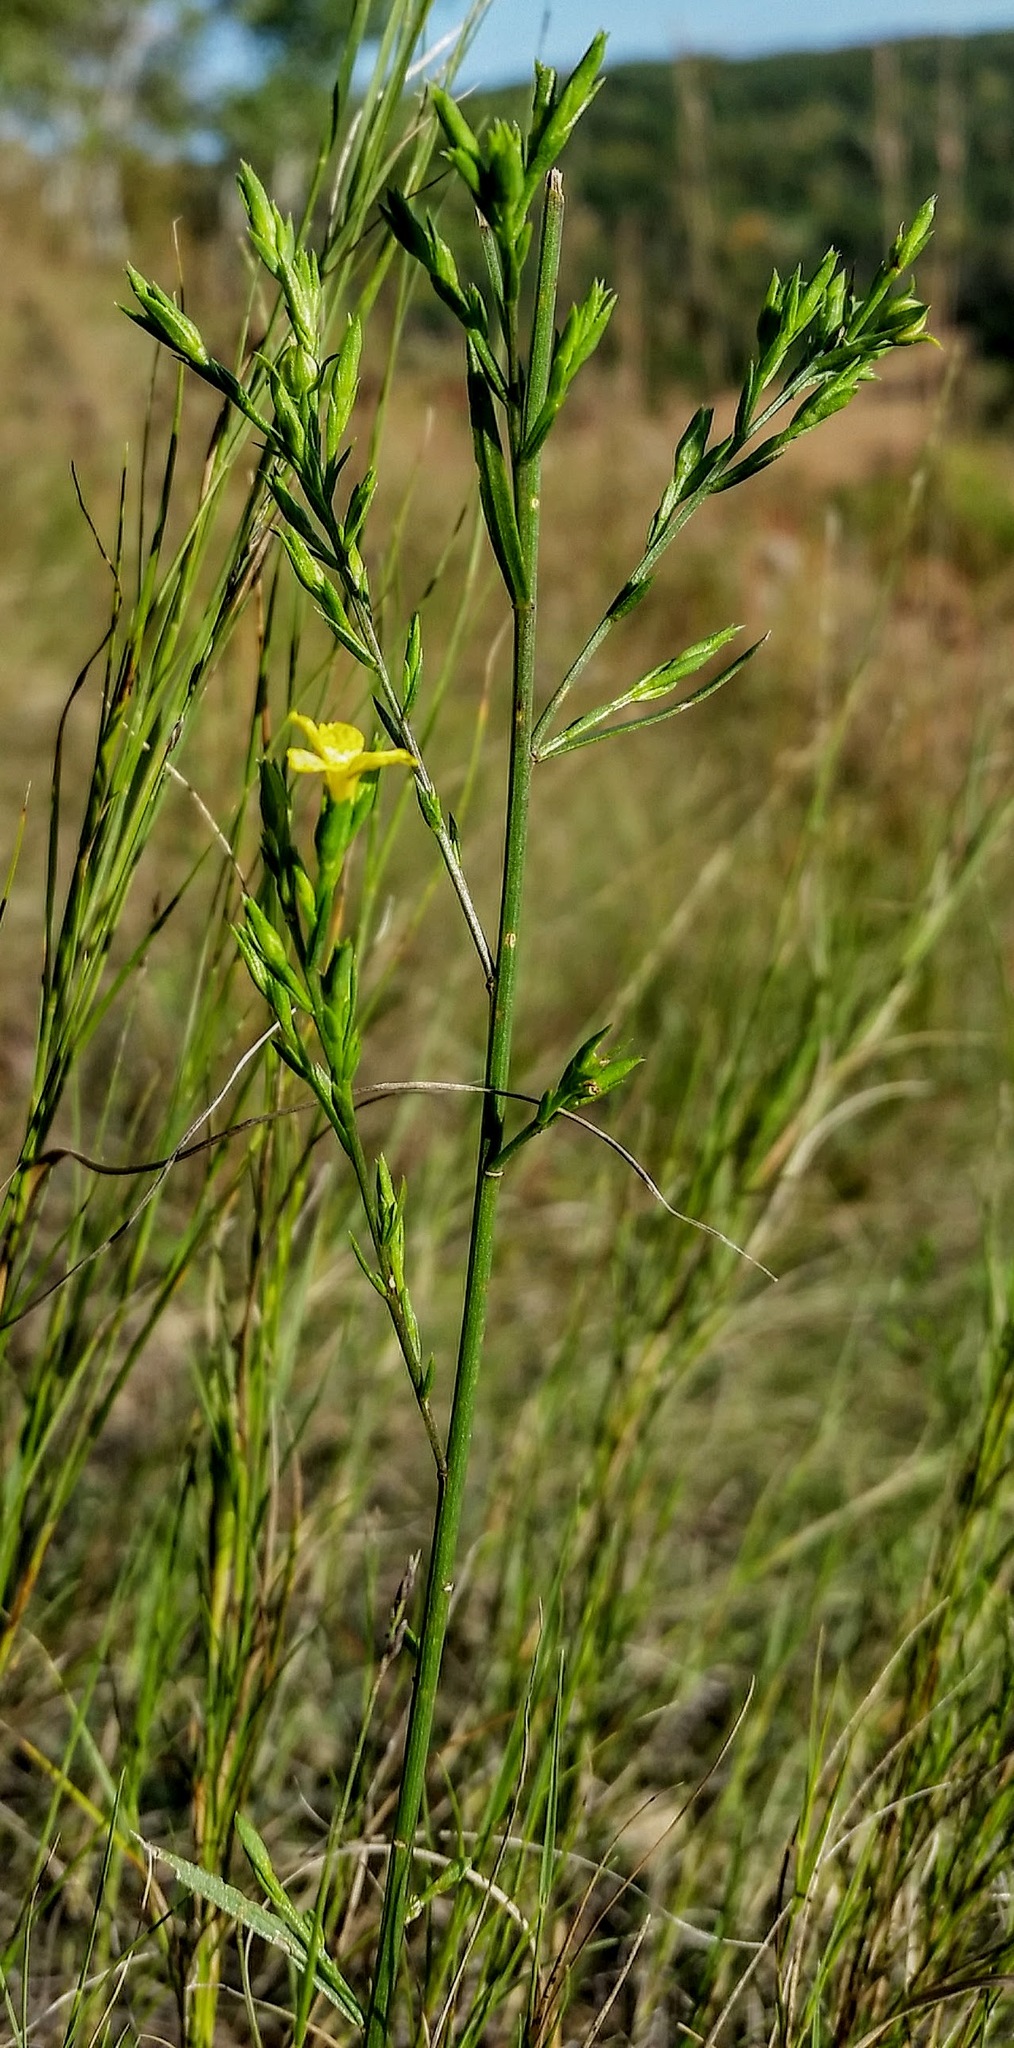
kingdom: Plantae
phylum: Tracheophyta
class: Magnoliopsida
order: Malpighiales
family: Linaceae
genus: Linum
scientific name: Linum sulcatum
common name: Grooved flax
